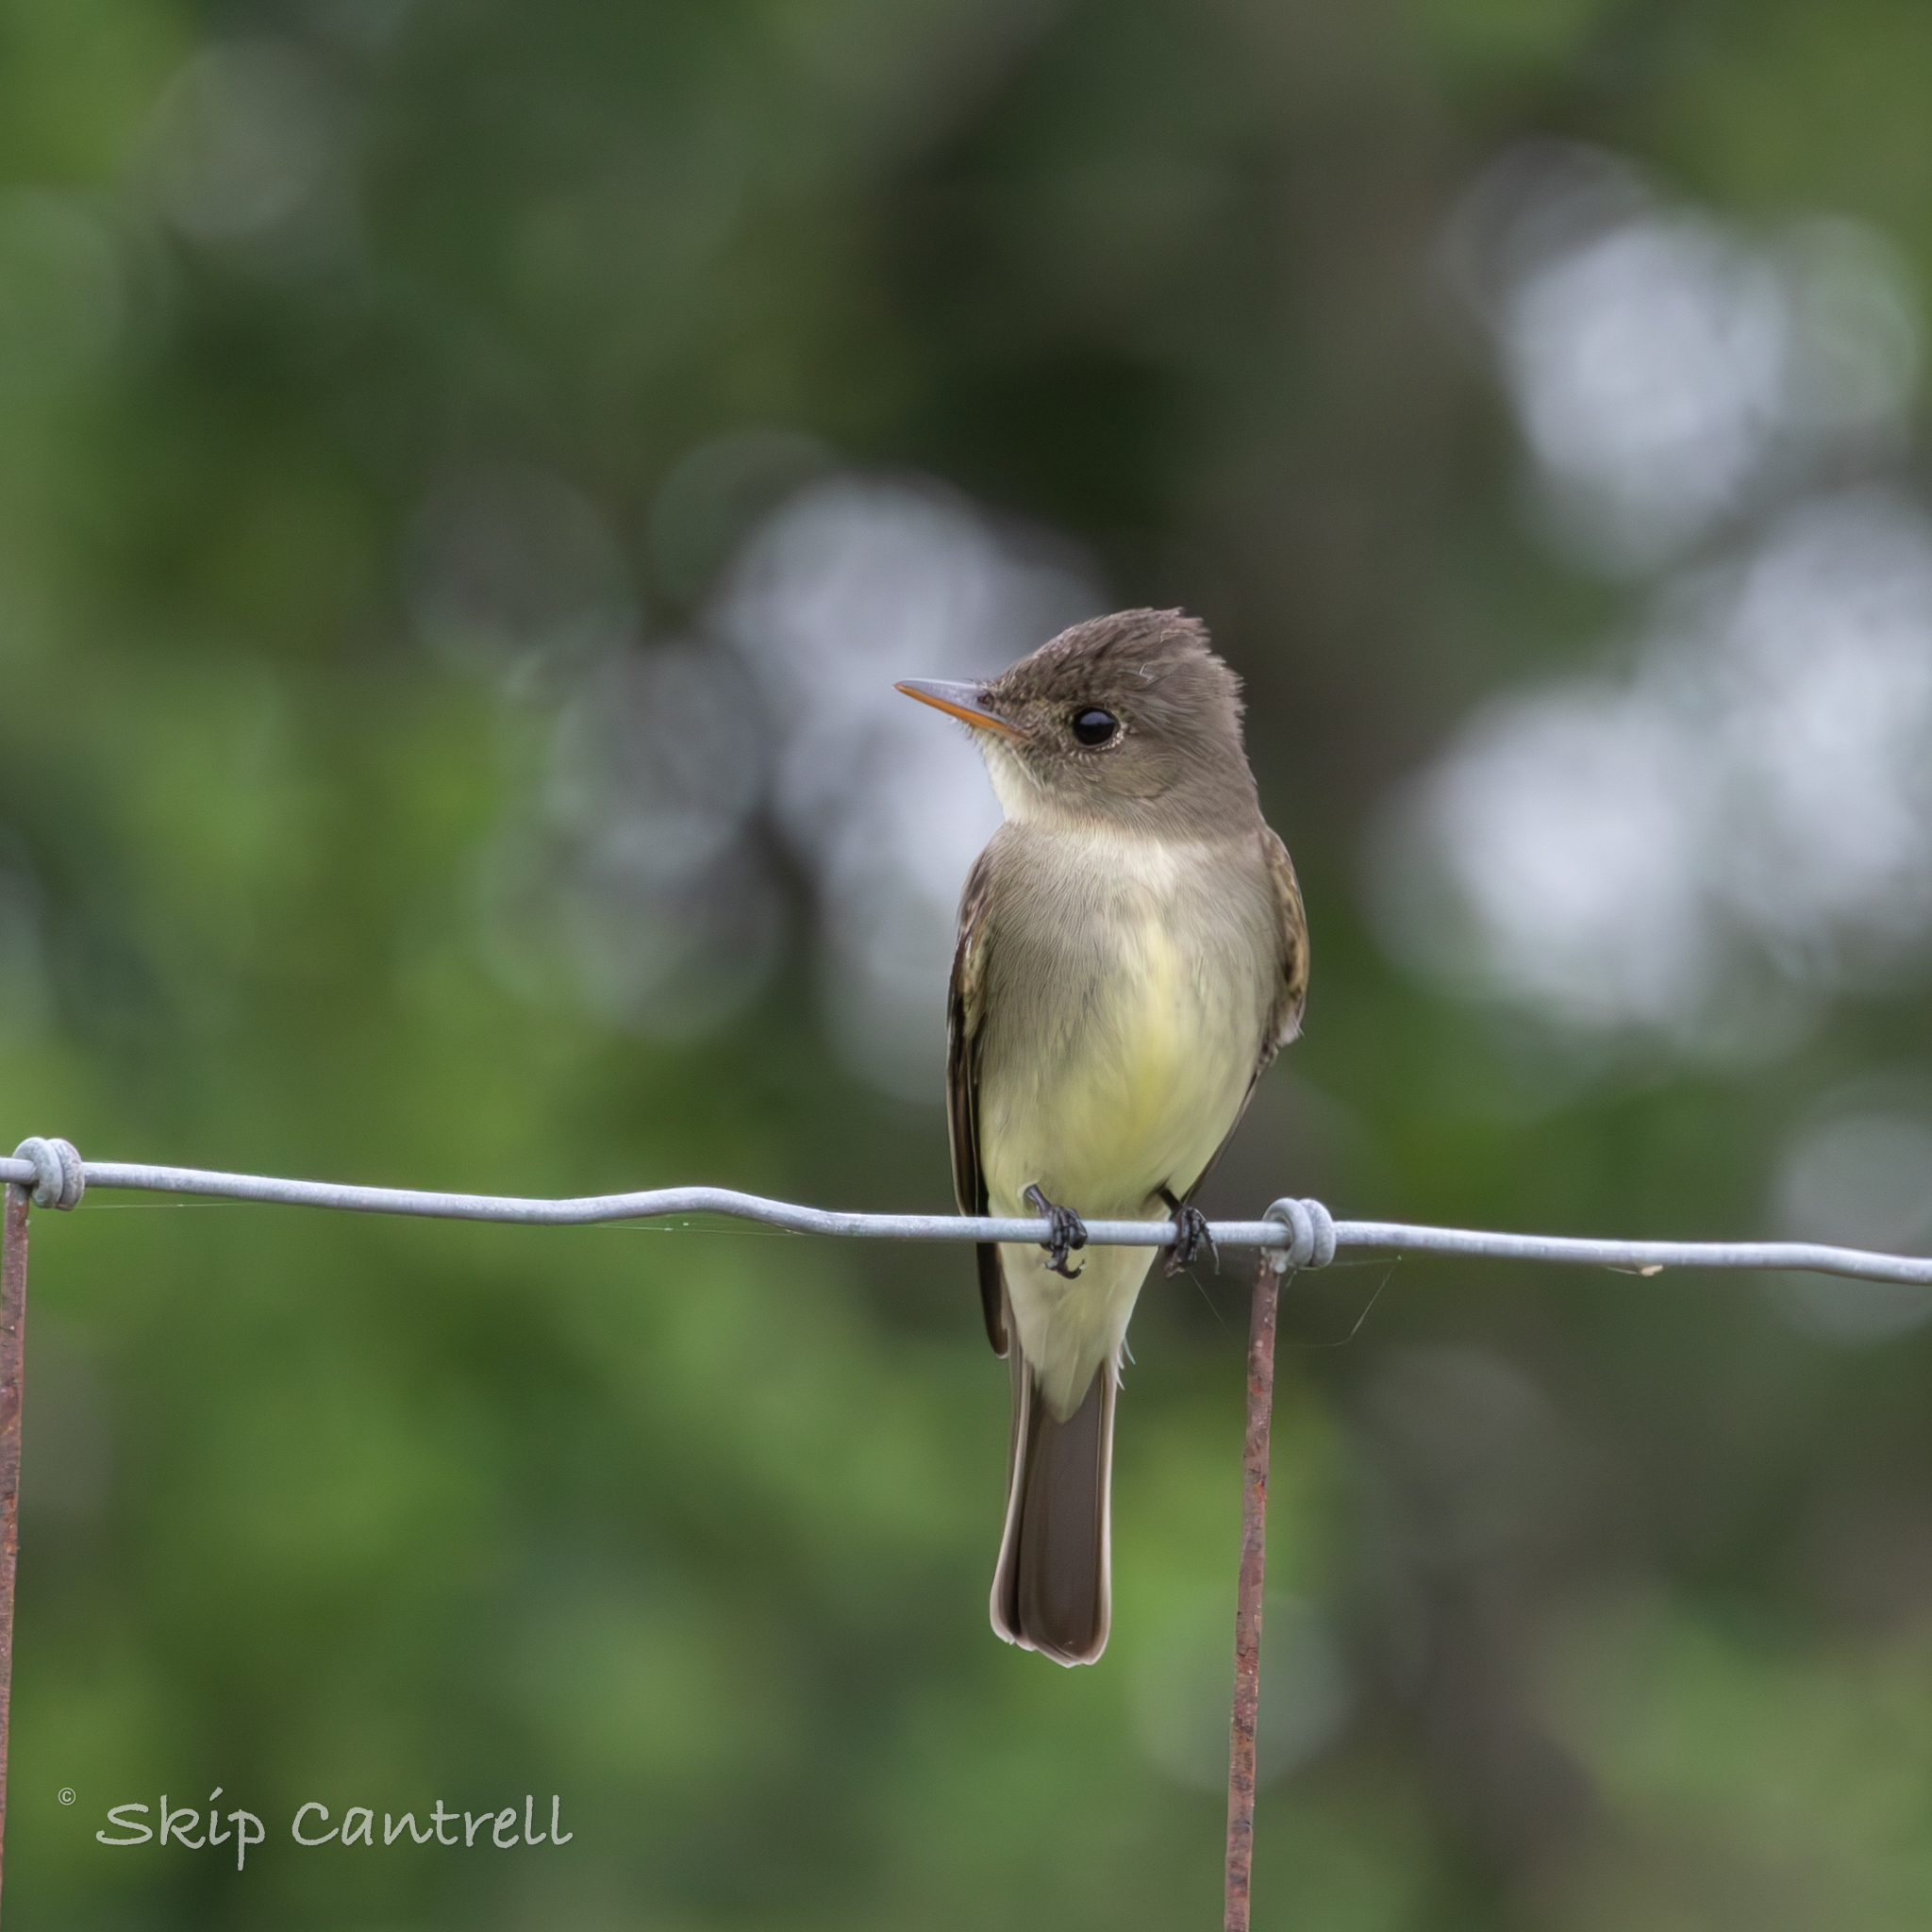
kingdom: Animalia
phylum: Chordata
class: Aves
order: Passeriformes
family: Tyrannidae
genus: Contopus
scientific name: Contopus virens
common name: Eastern wood-pewee
